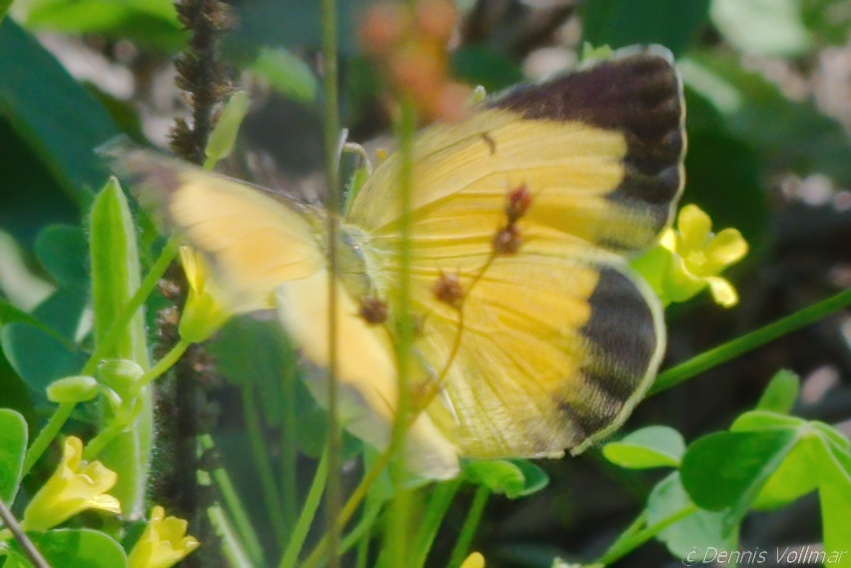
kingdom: Animalia
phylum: Arthropoda
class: Insecta
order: Lepidoptera
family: Pieridae
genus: Abaeis
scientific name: Abaeis nicippe
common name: Sleepy orange
